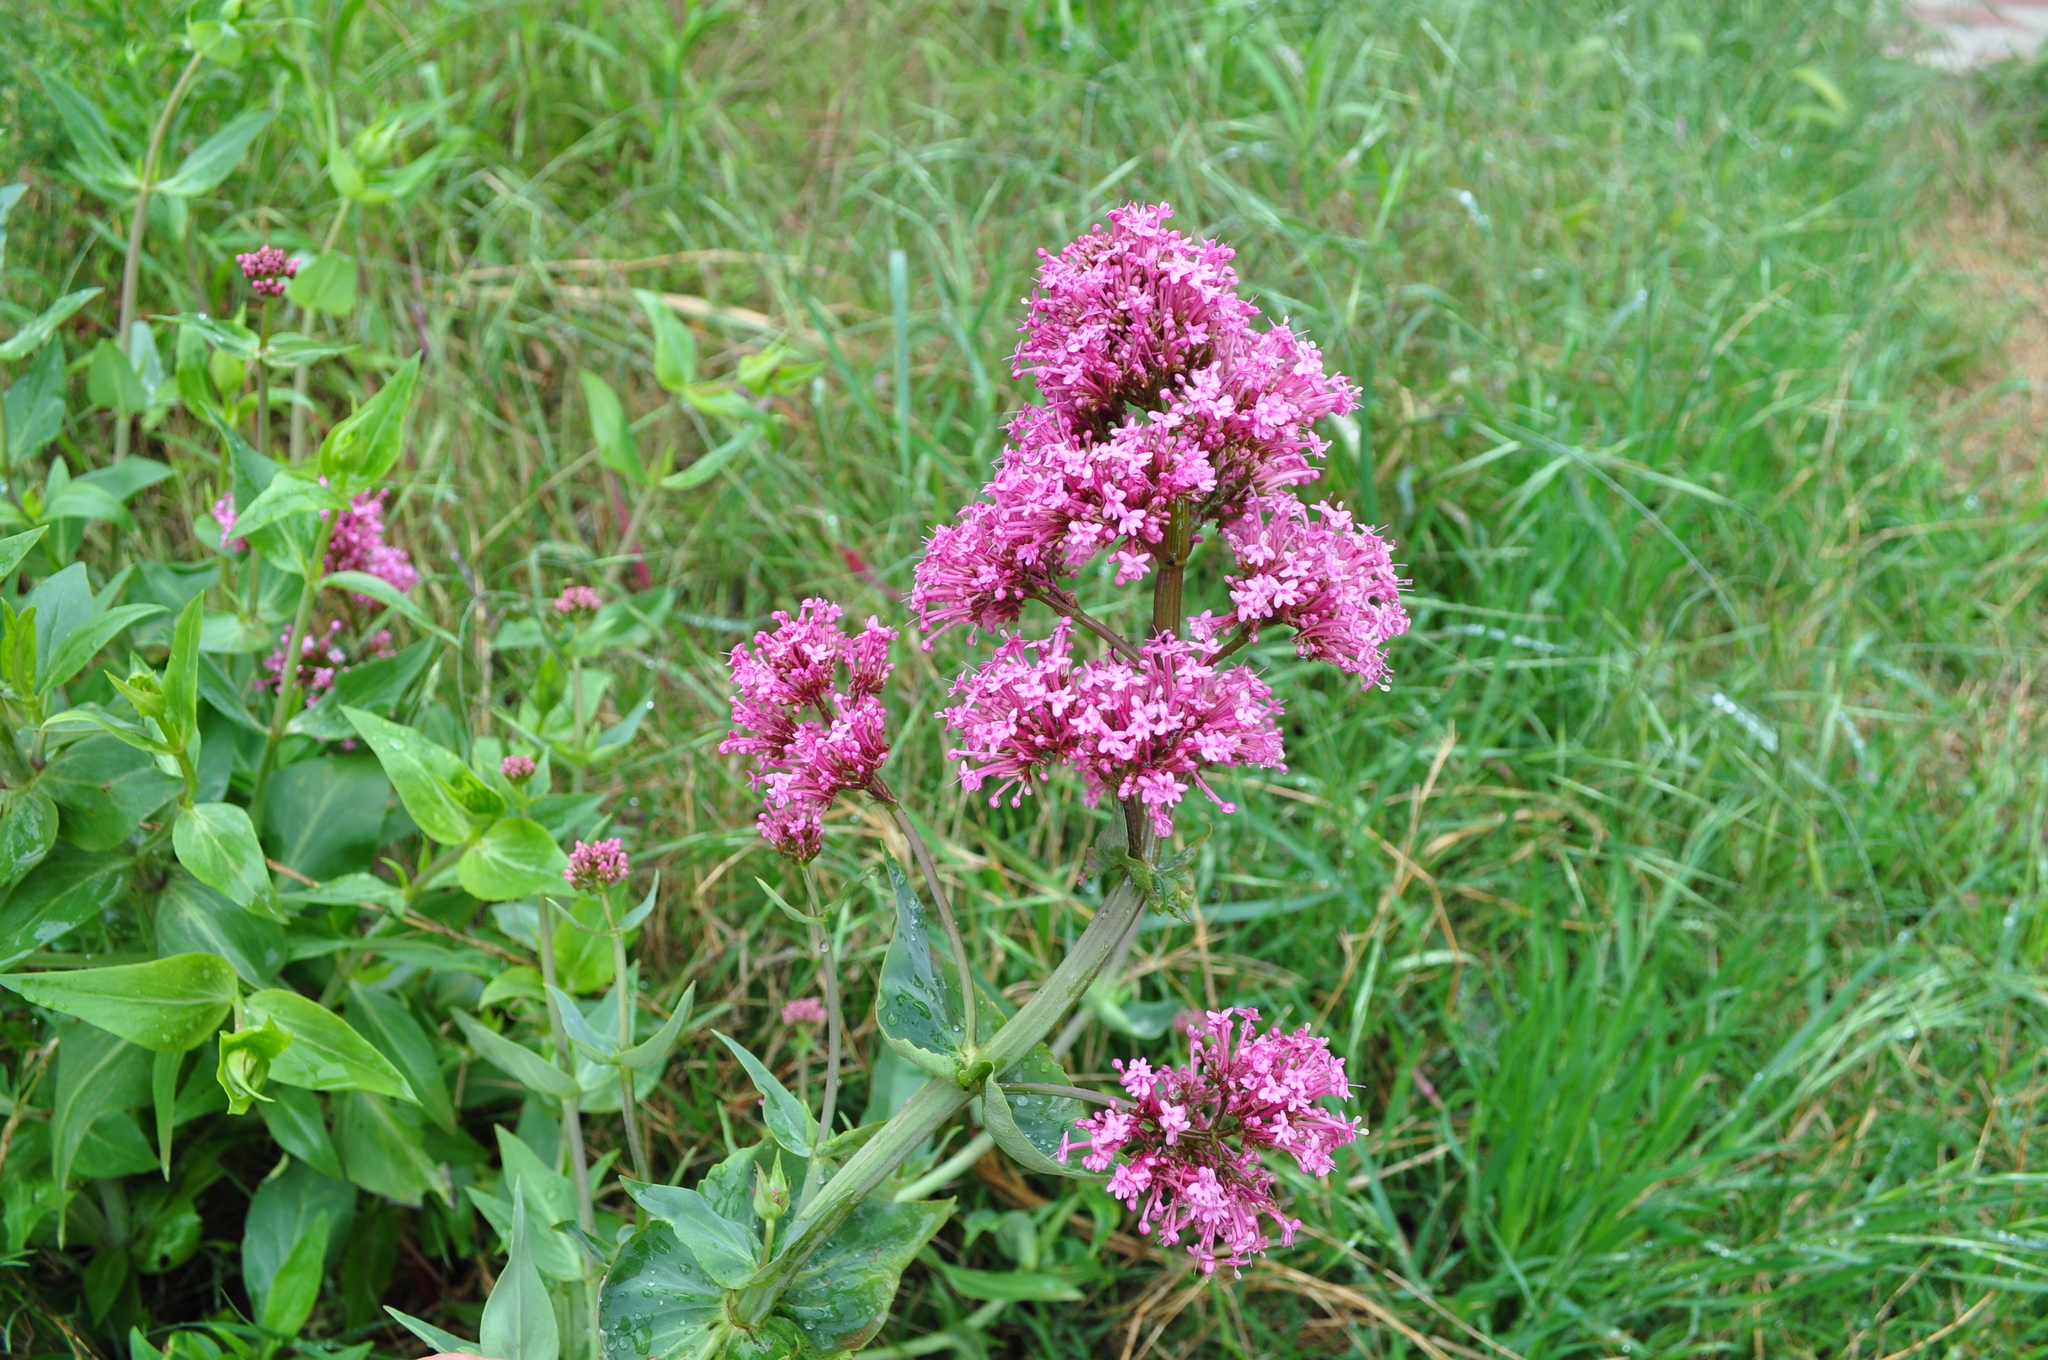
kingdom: Plantae
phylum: Tracheophyta
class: Magnoliopsida
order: Dipsacales
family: Caprifoliaceae
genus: Centranthus
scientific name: Centranthus ruber
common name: Red valerian
